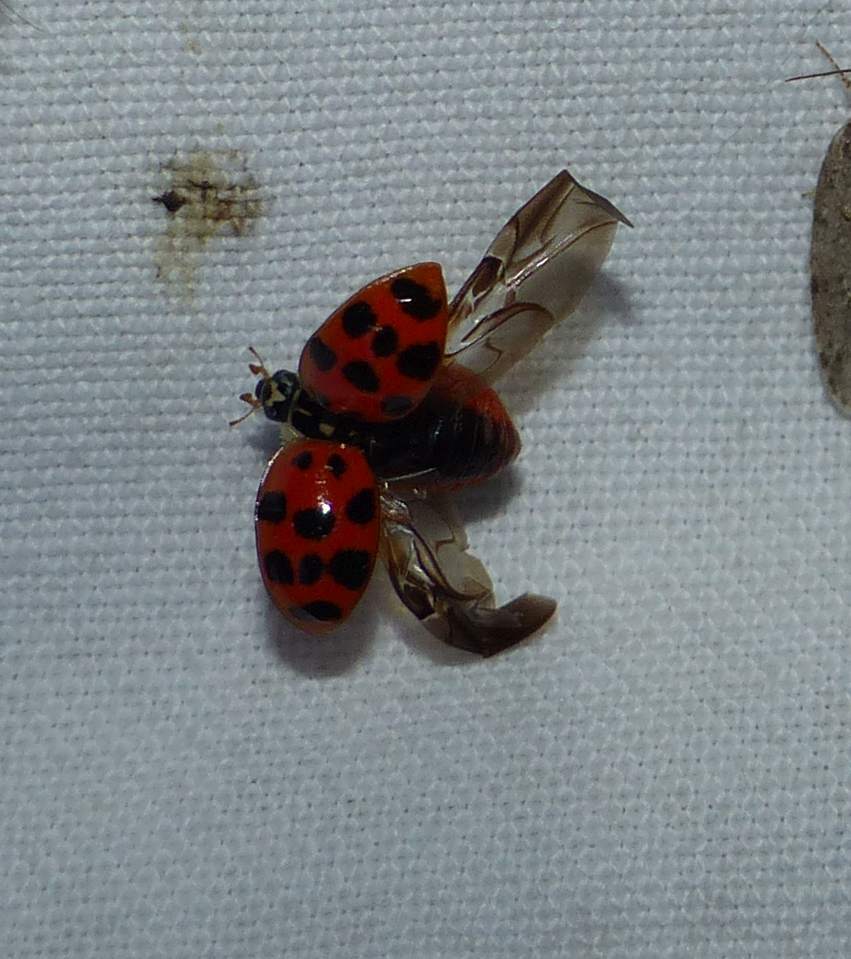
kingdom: Animalia
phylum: Arthropoda
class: Insecta
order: Coleoptera
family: Coccinellidae
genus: Harmonia
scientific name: Harmonia axyridis
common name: Harlequin ladybird
